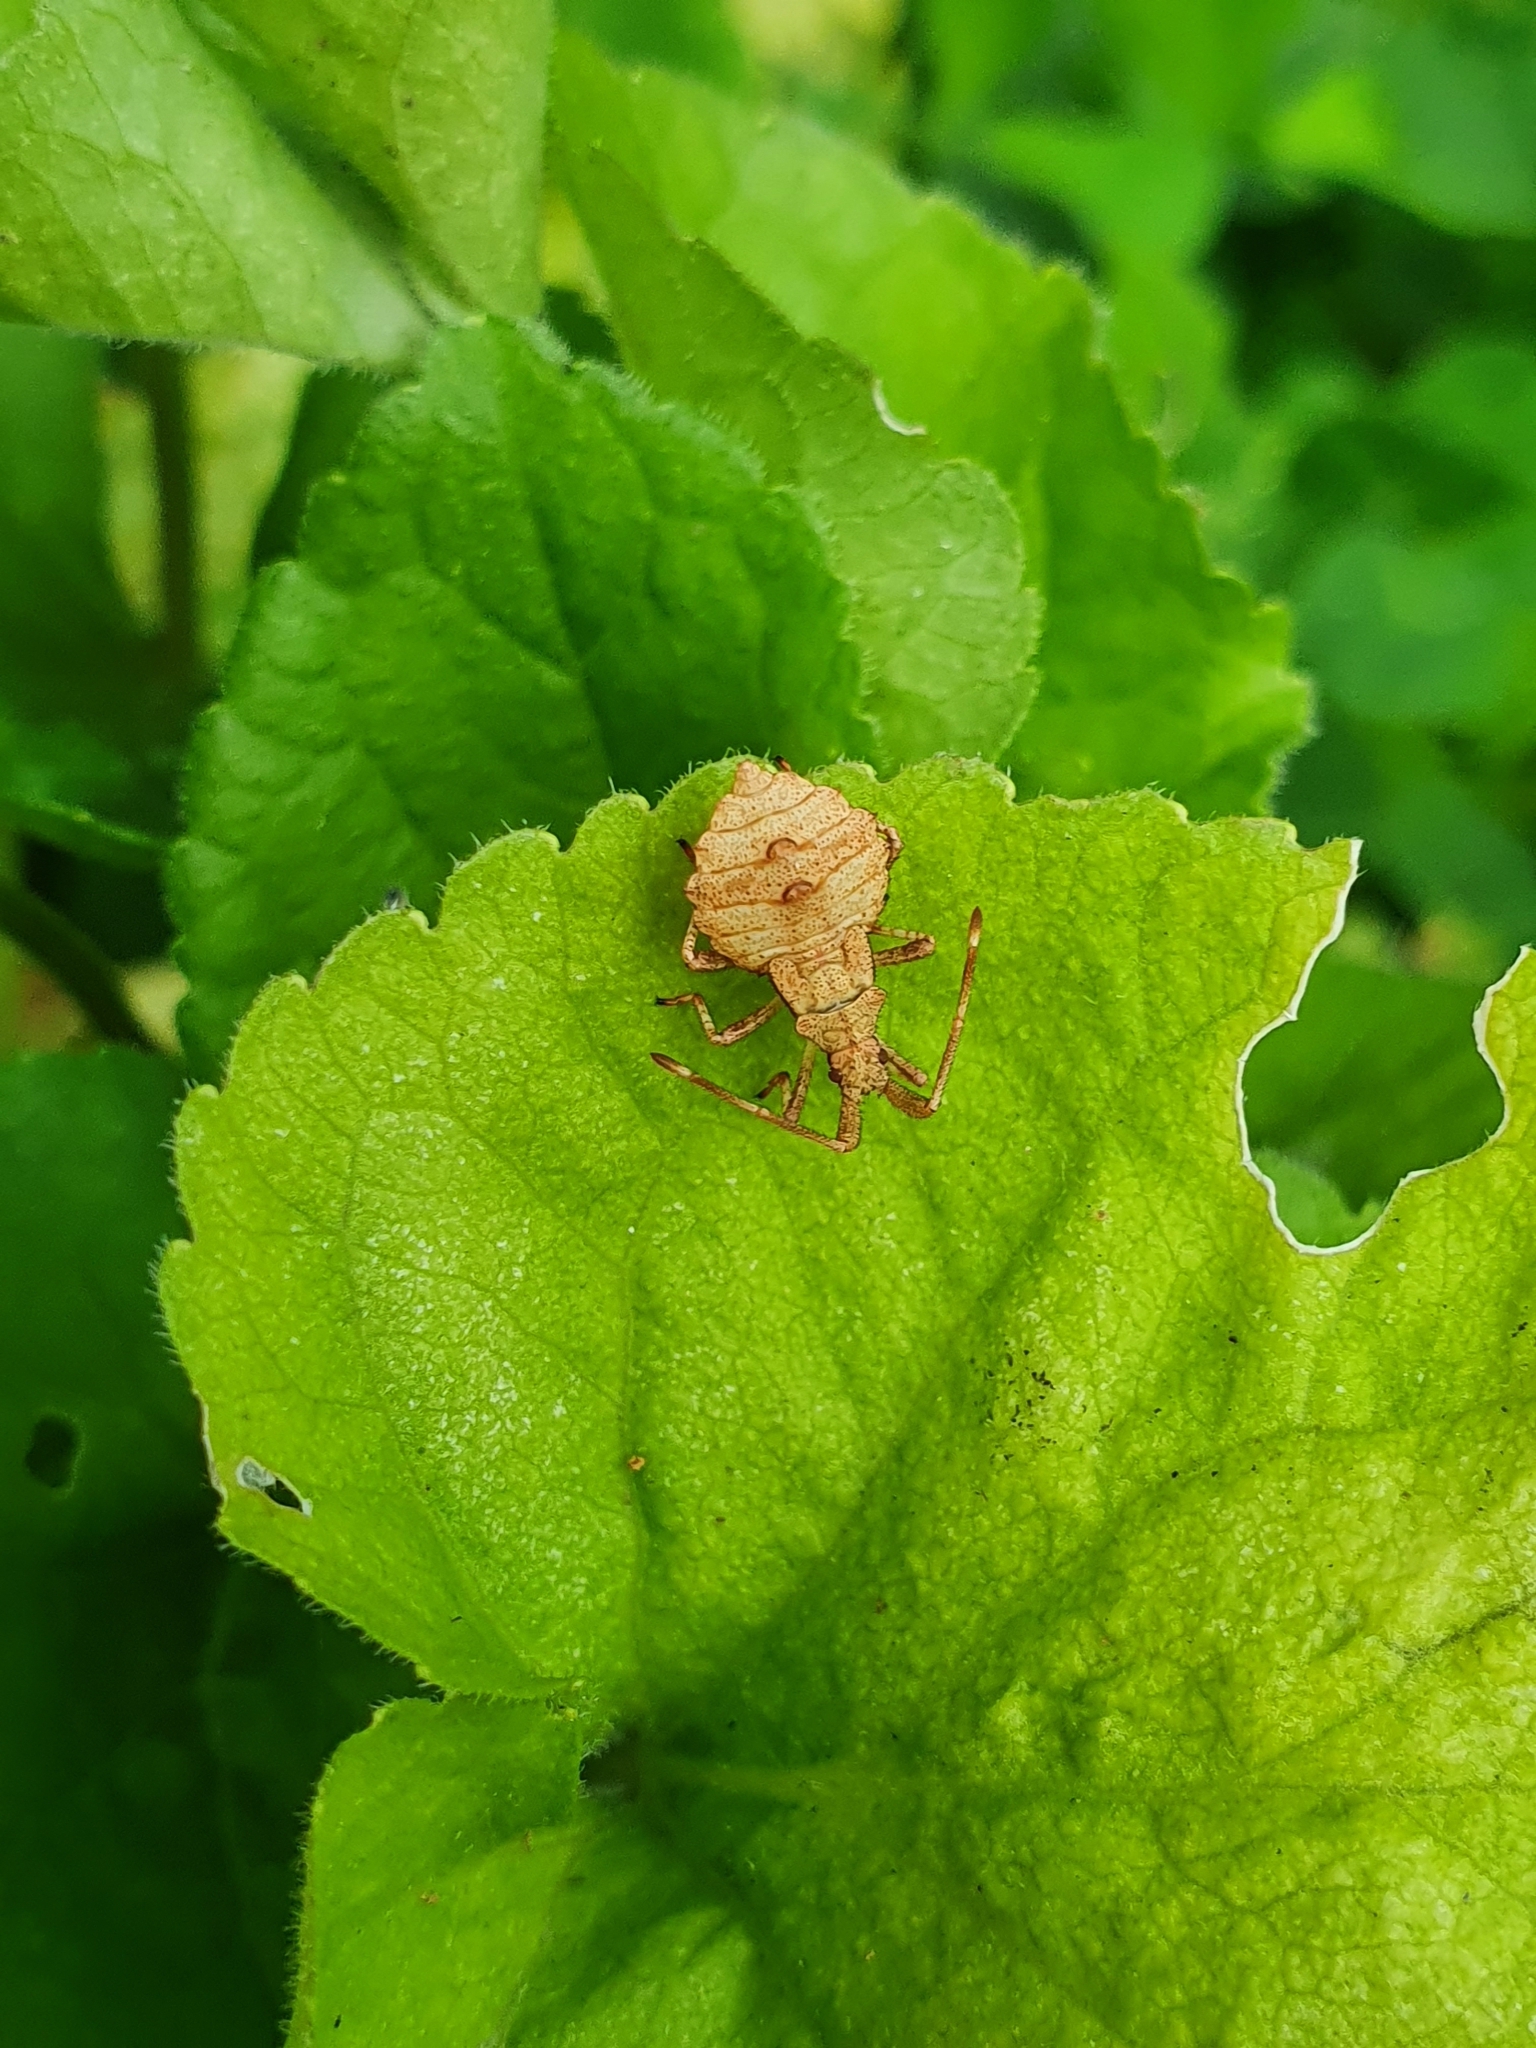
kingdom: Animalia
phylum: Arthropoda
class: Insecta
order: Hemiptera
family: Coreidae
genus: Coreus
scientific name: Coreus marginatus
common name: Dock bug
